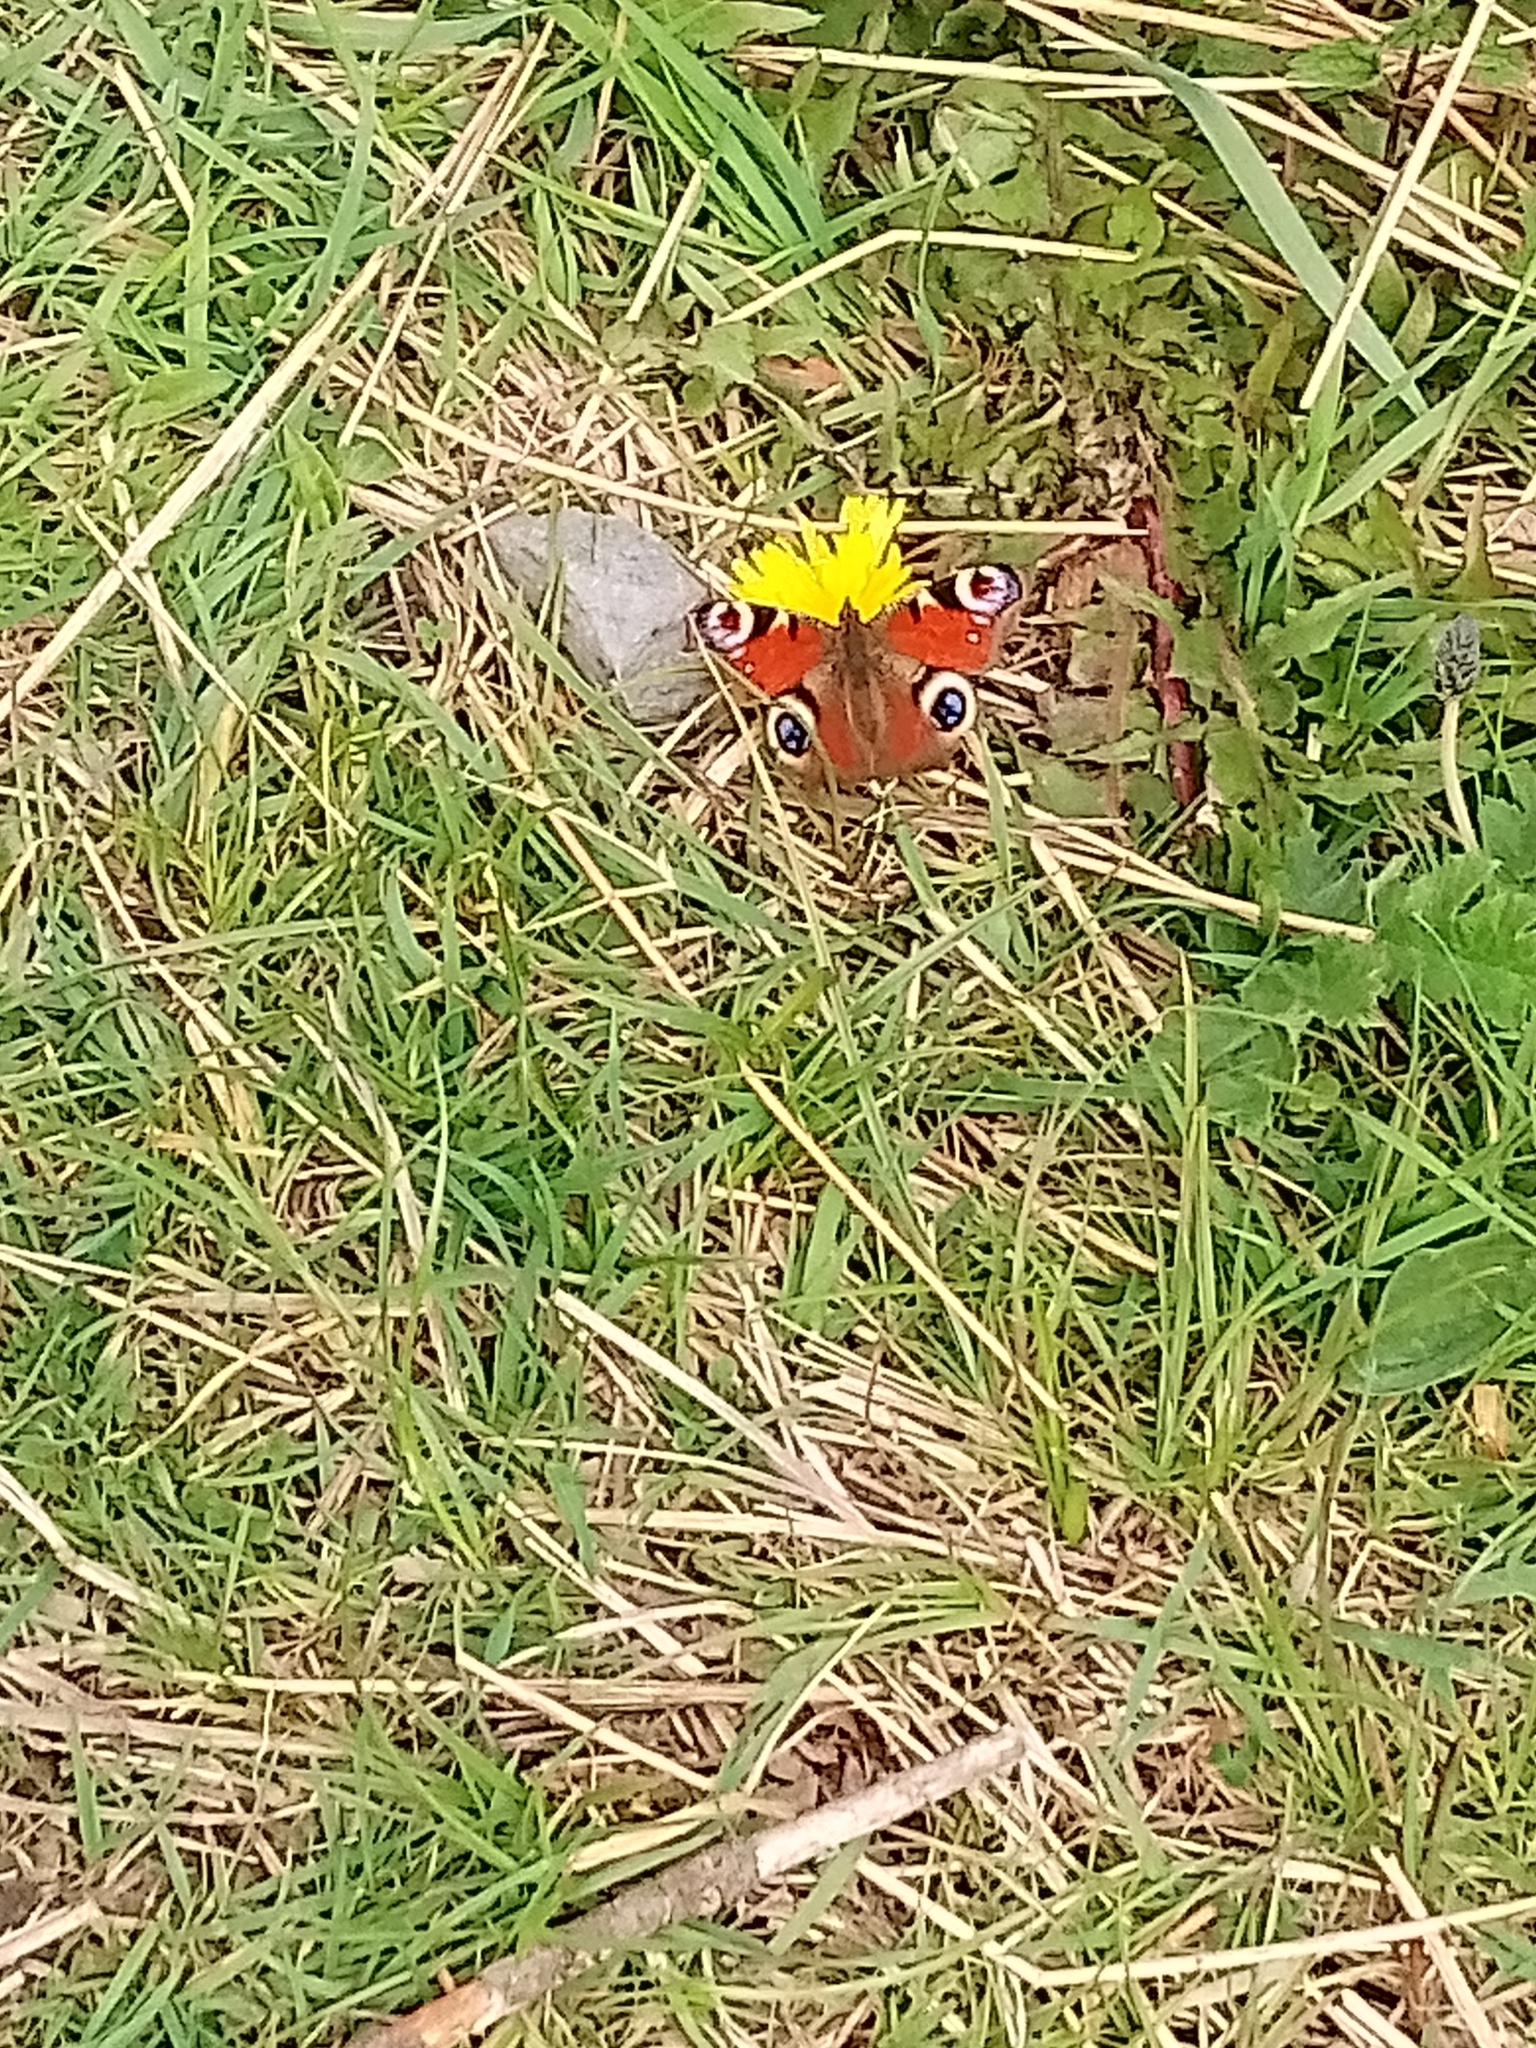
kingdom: Animalia
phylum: Arthropoda
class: Insecta
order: Lepidoptera
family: Nymphalidae
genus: Aglais
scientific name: Aglais io
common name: Peacock
